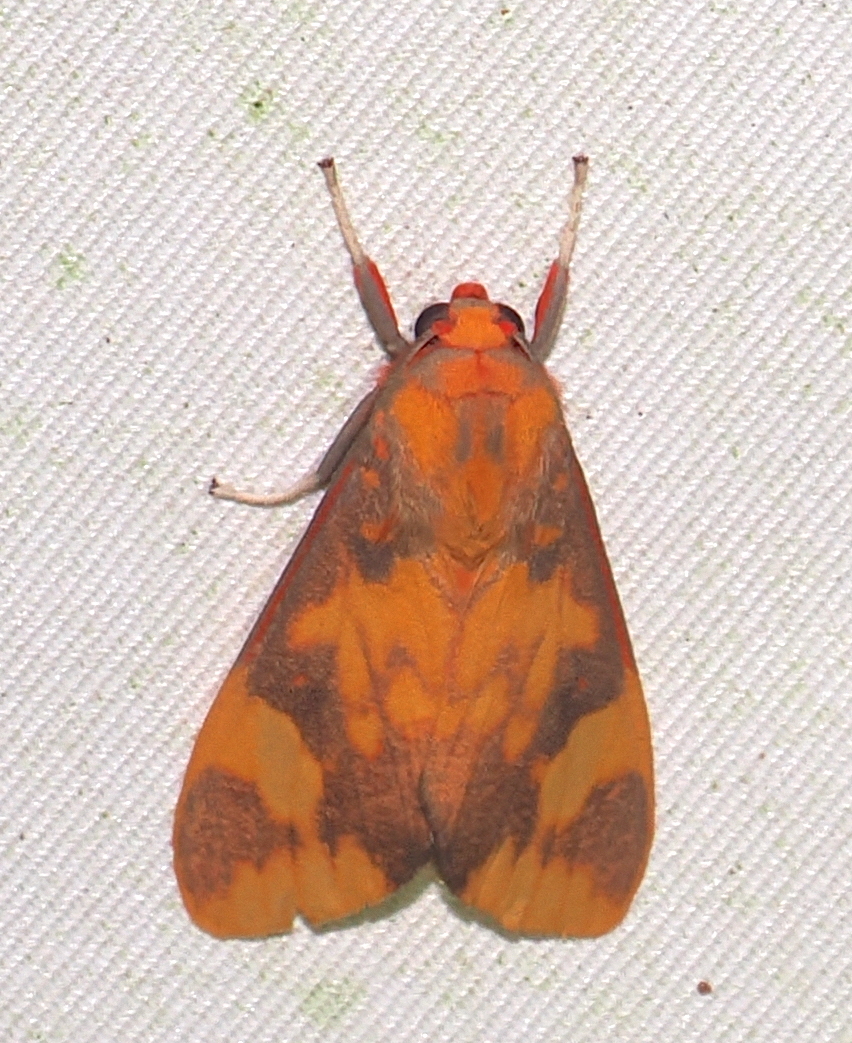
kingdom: Animalia
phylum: Arthropoda
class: Insecta
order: Lepidoptera
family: Erebidae
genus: Melese
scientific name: Melese laodamia
